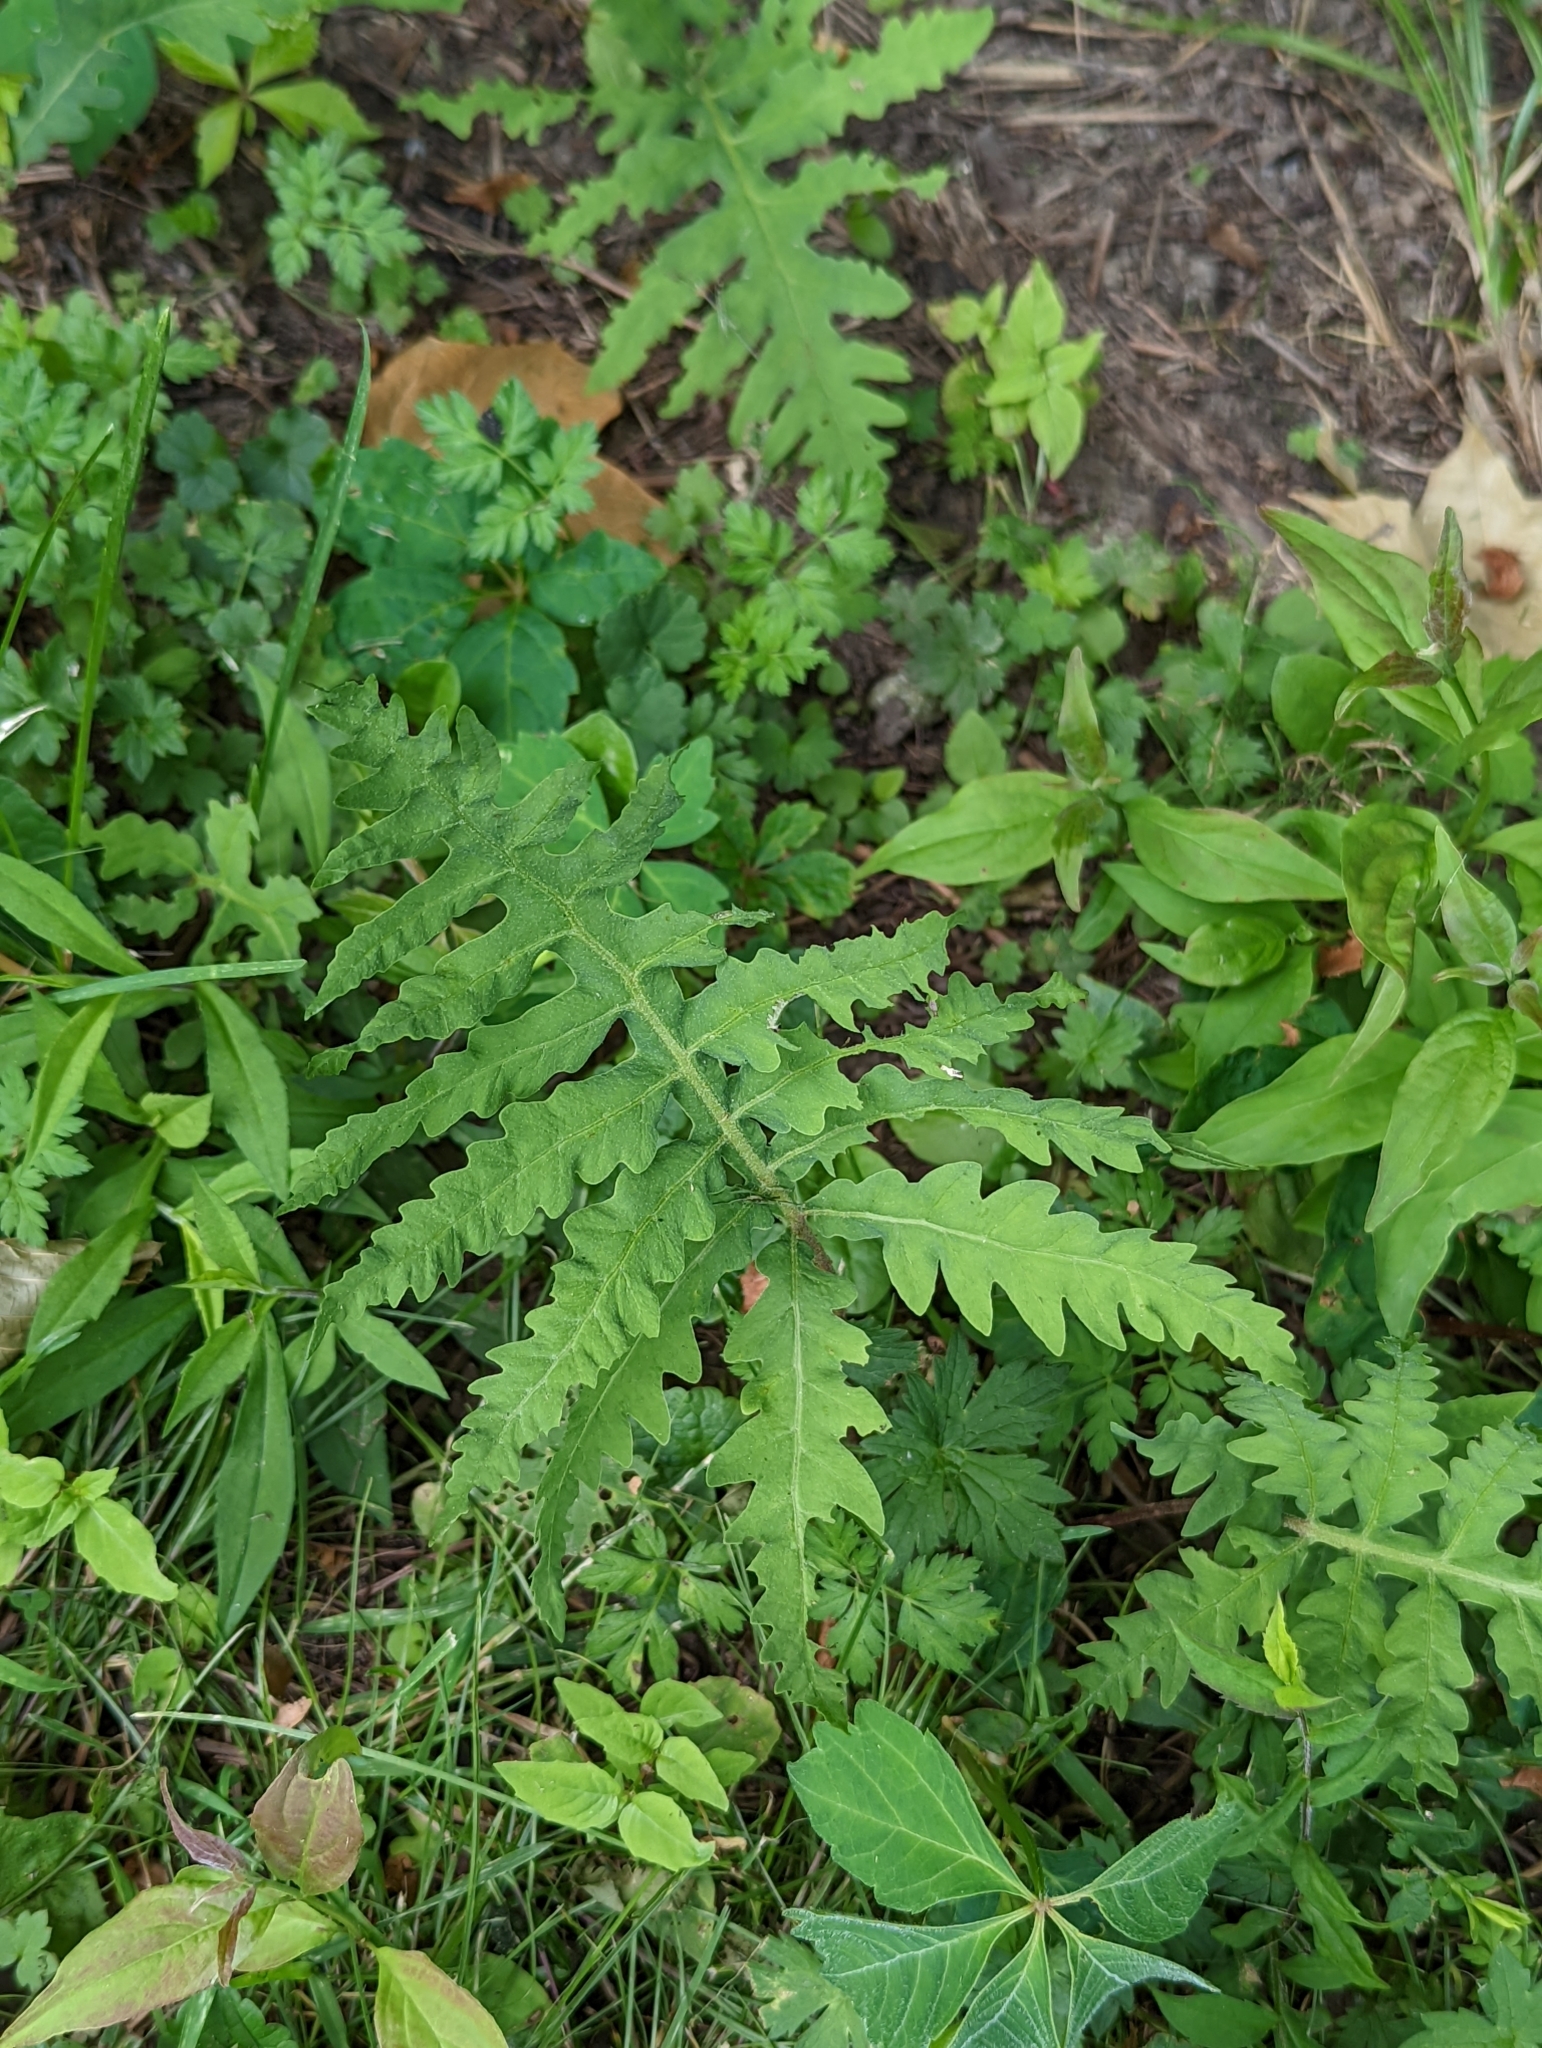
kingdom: Plantae
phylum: Tracheophyta
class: Polypodiopsida
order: Polypodiales
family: Onocleaceae
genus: Onoclea
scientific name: Onoclea sensibilis
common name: Sensitive fern
